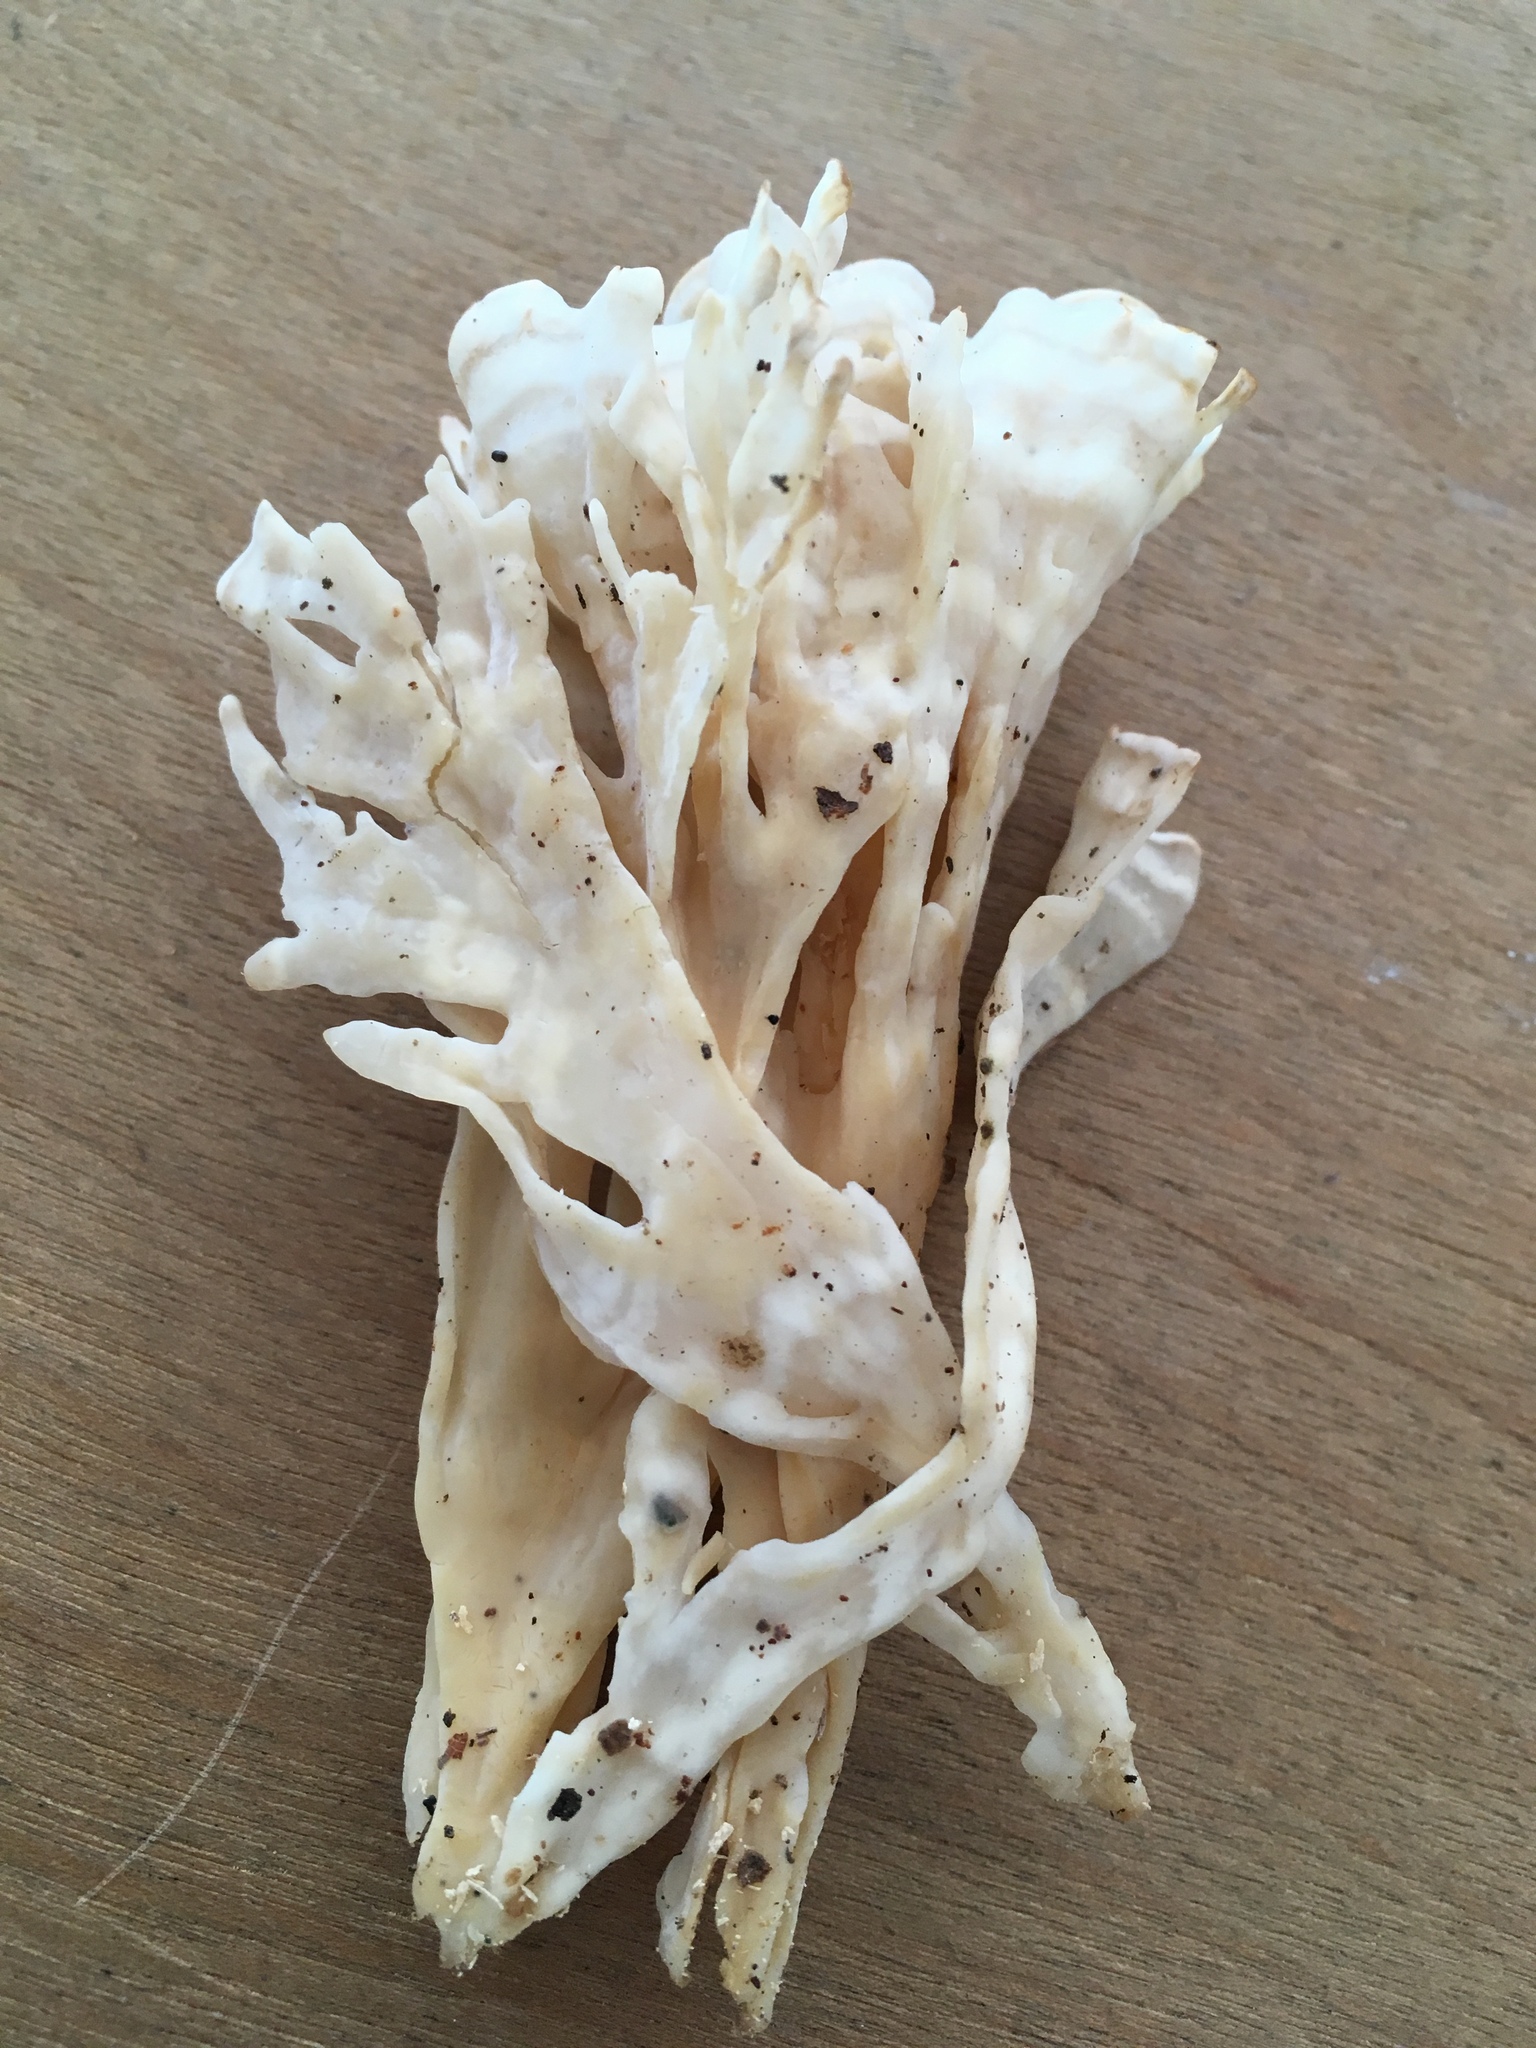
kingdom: Fungi
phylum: Basidiomycota
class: Agaricomycetes
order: Polyporales
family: Sparassidaceae
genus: Sparassis
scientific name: Sparassis spathulata
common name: Eastern cauliflower mushroom
